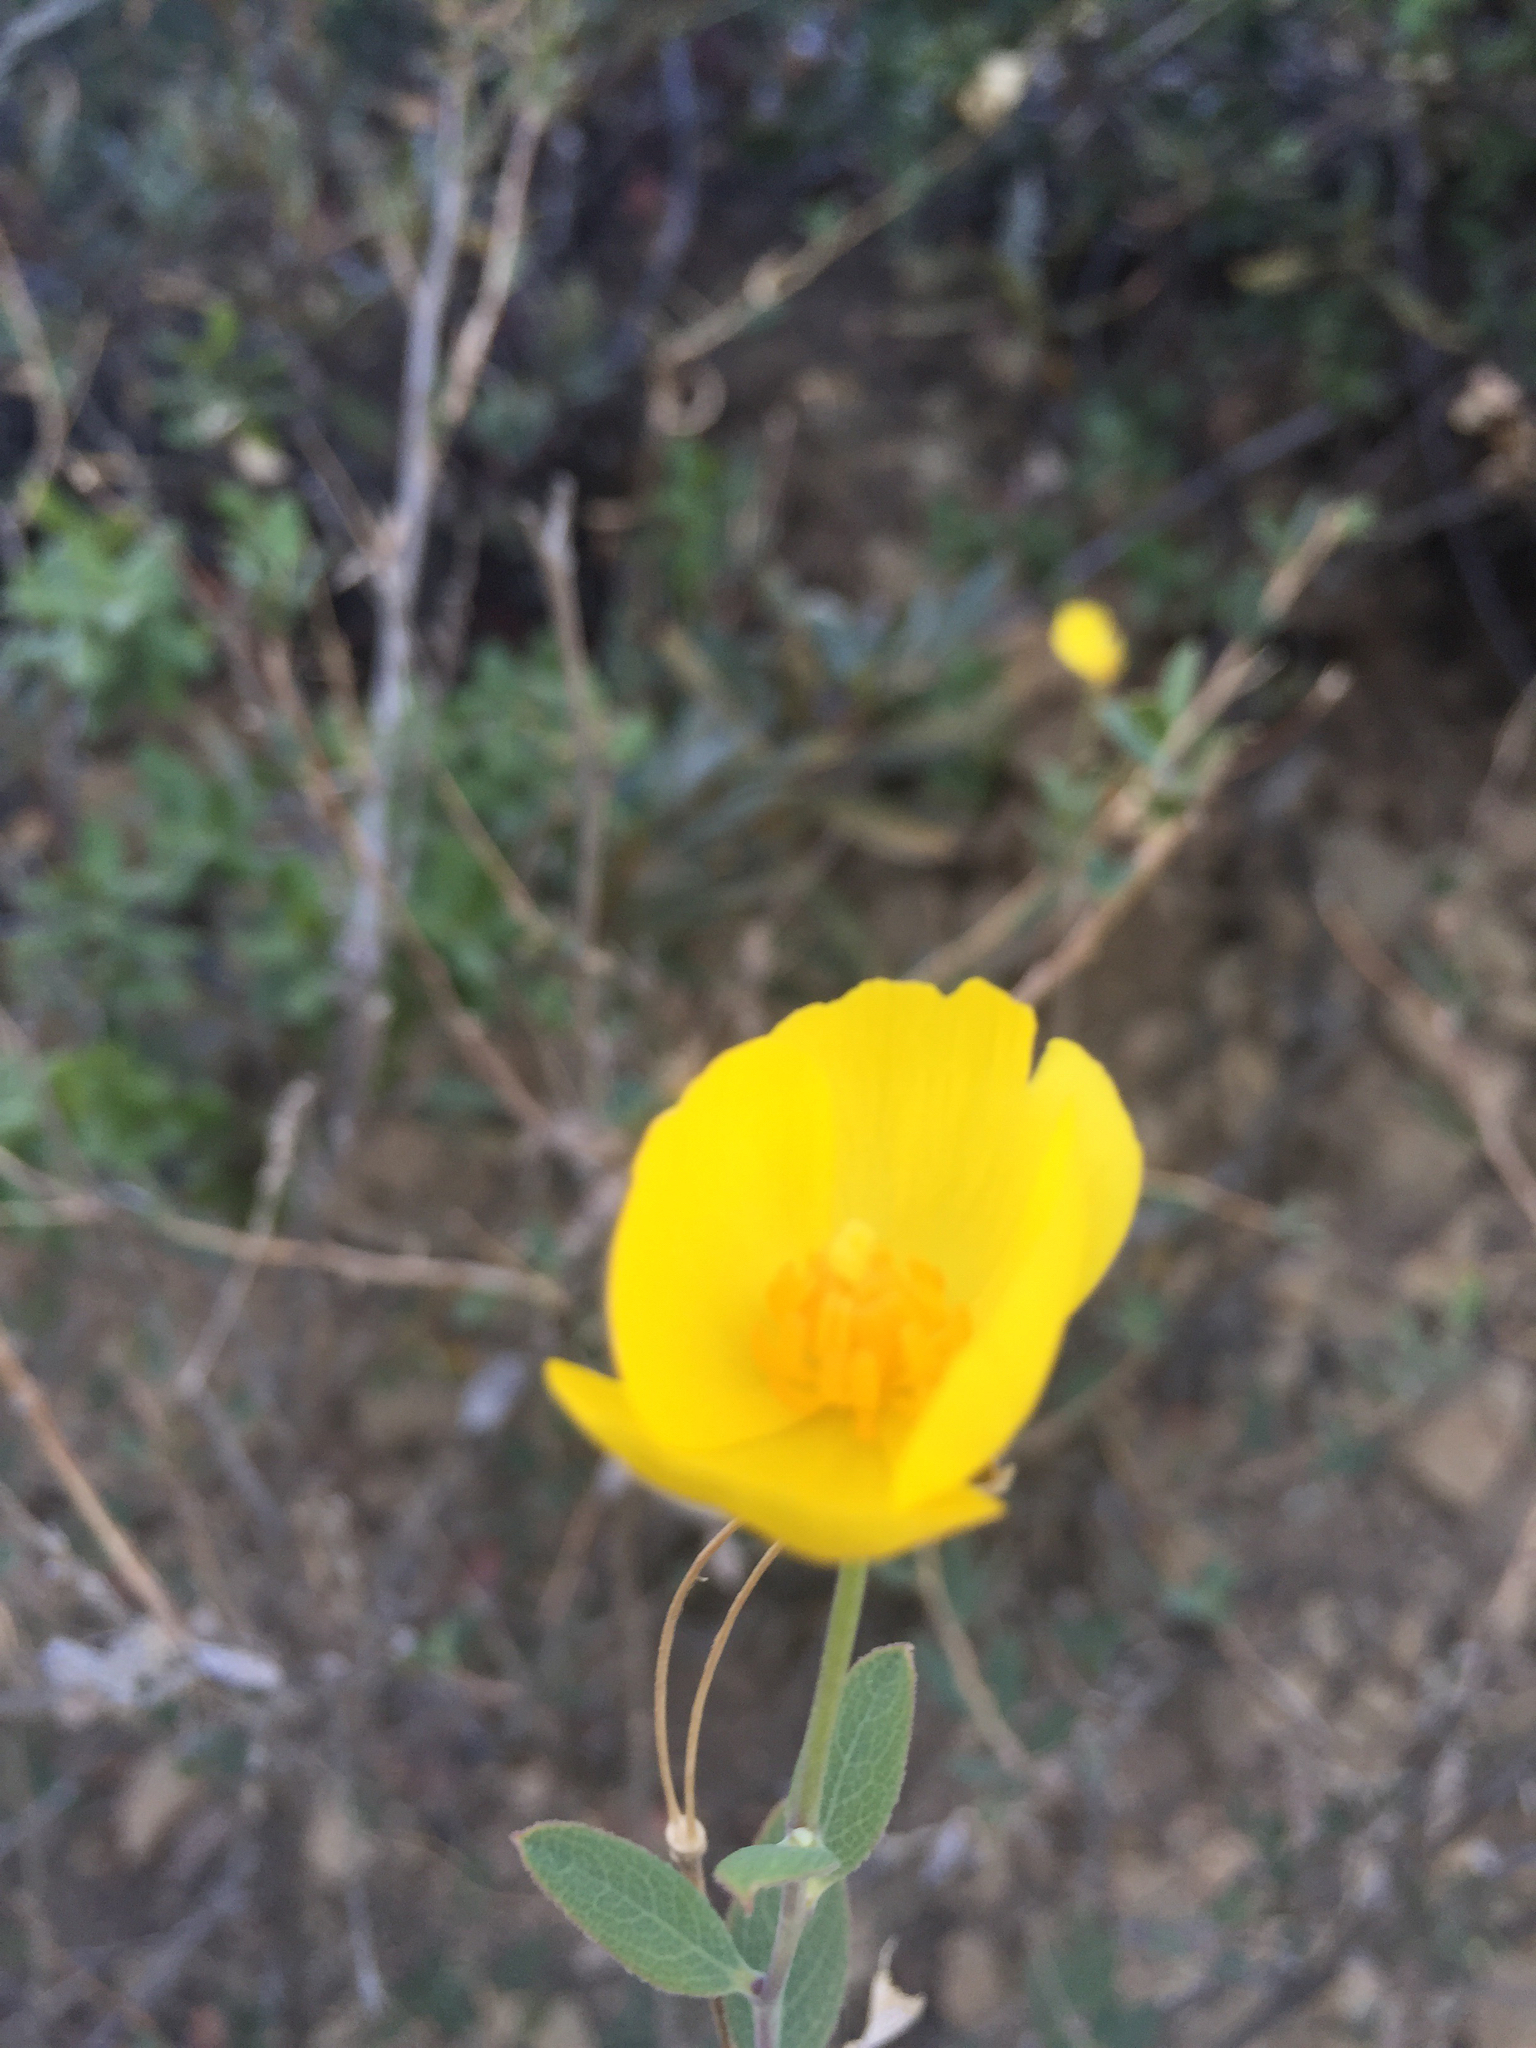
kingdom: Plantae
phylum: Tracheophyta
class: Magnoliopsida
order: Ranunculales
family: Papaveraceae
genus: Dendromecon
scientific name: Dendromecon rigida
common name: Tree poppy
